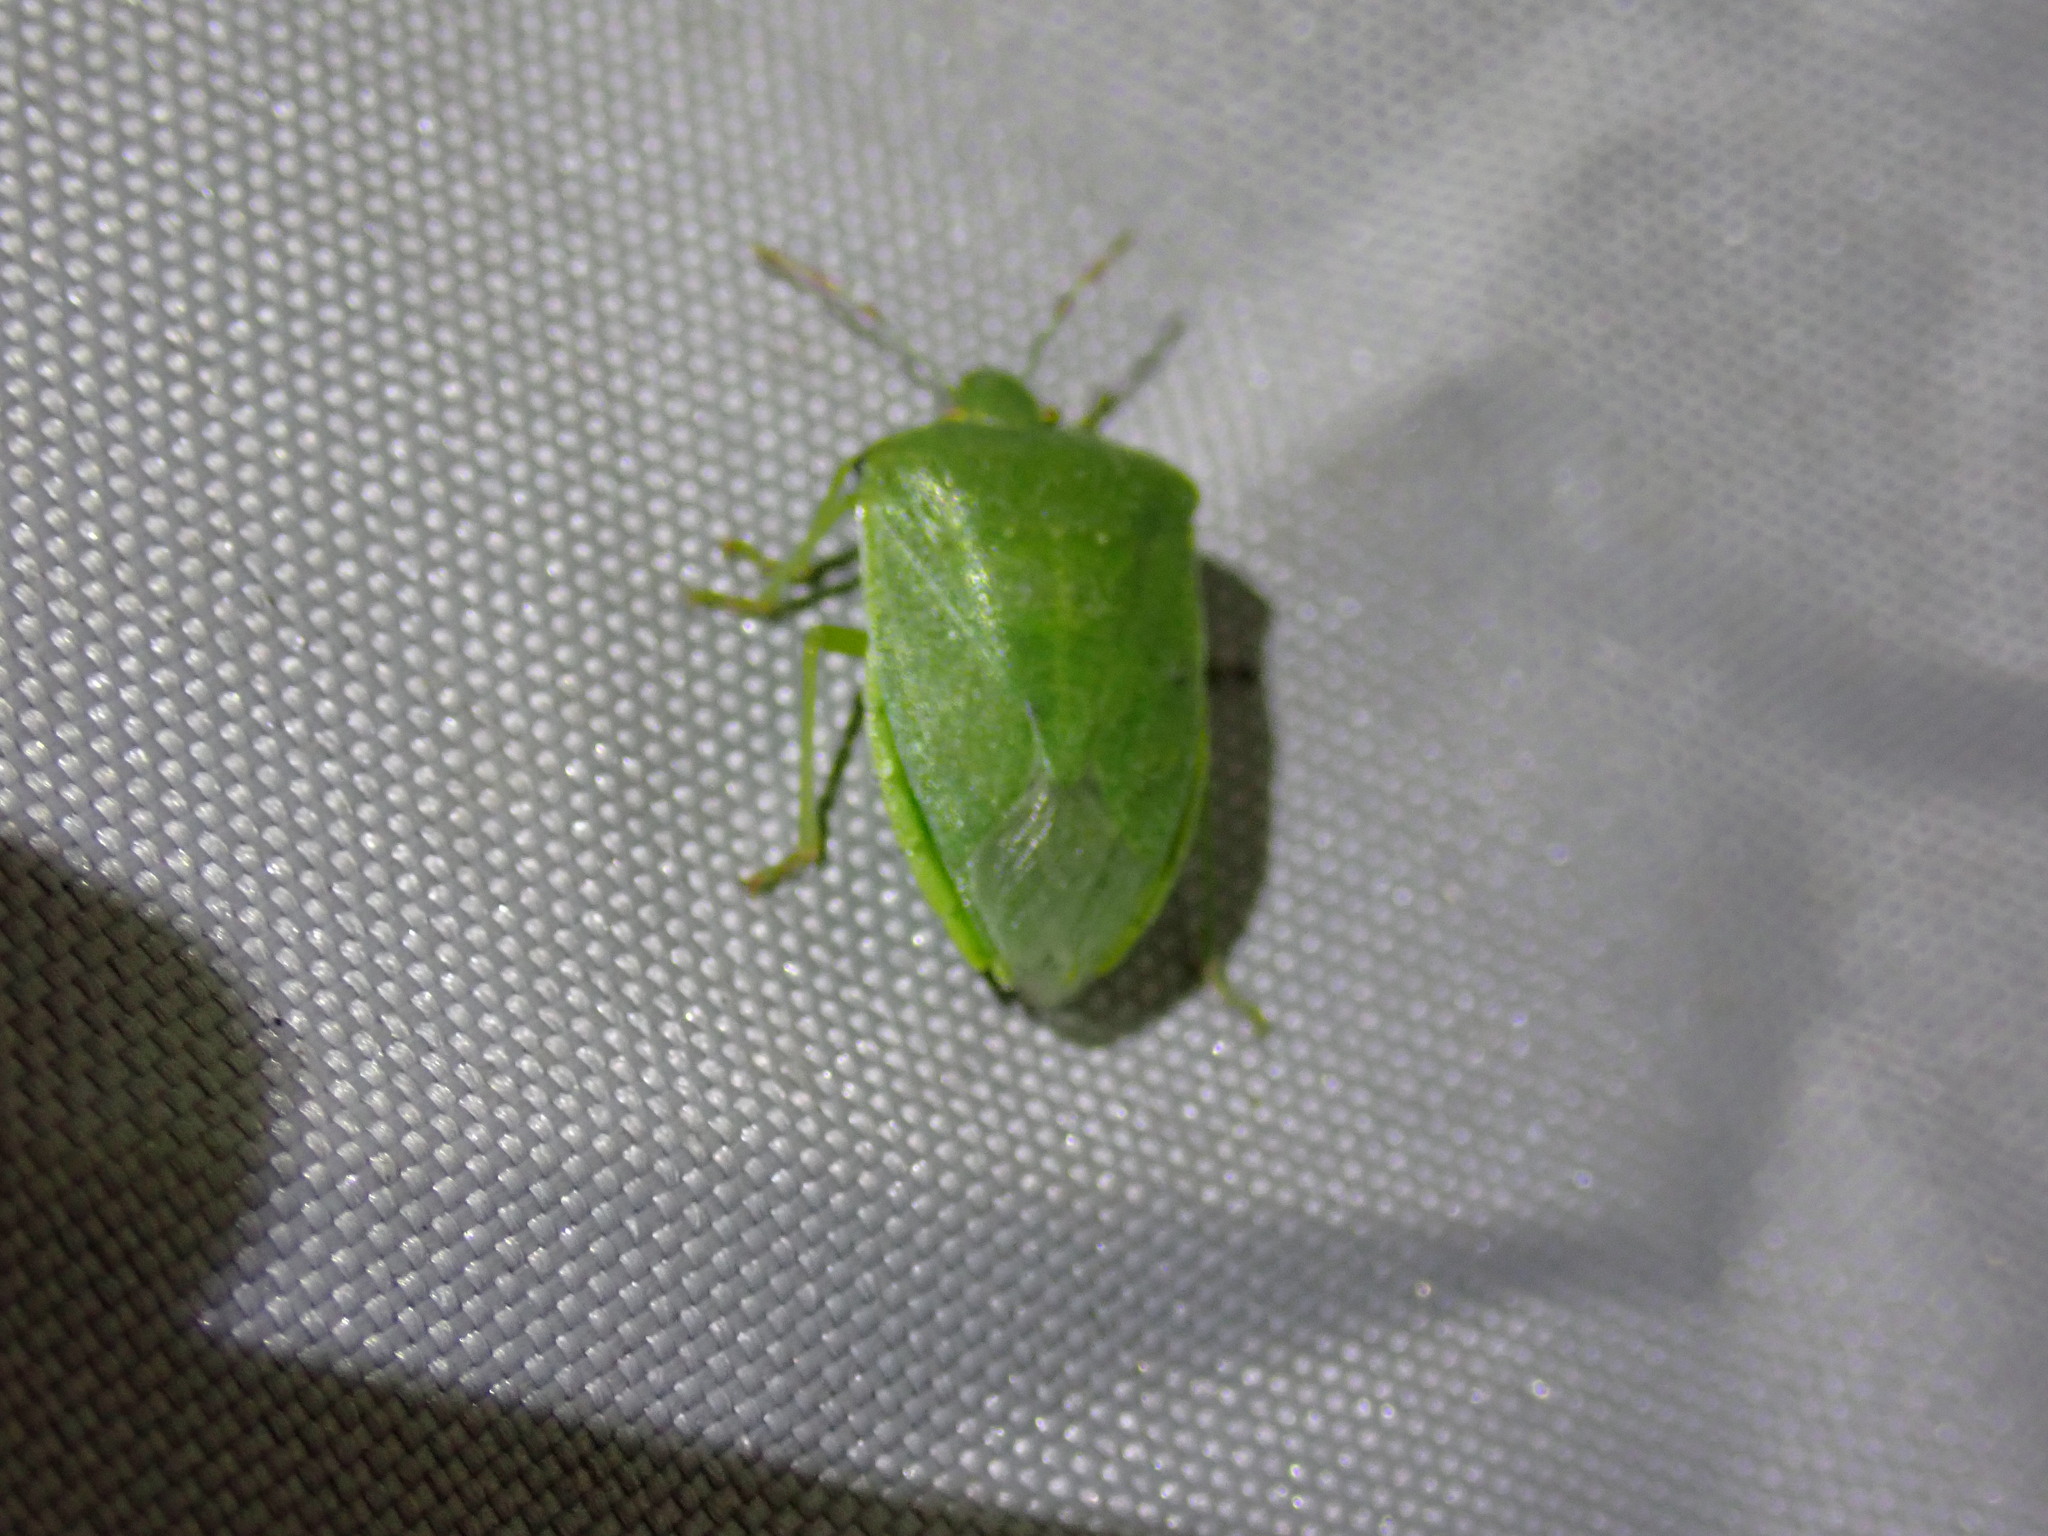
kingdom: Animalia
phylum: Arthropoda
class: Insecta
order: Hemiptera
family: Pentatomidae
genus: Nezara
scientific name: Nezara viridula
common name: Southern green stink bug
